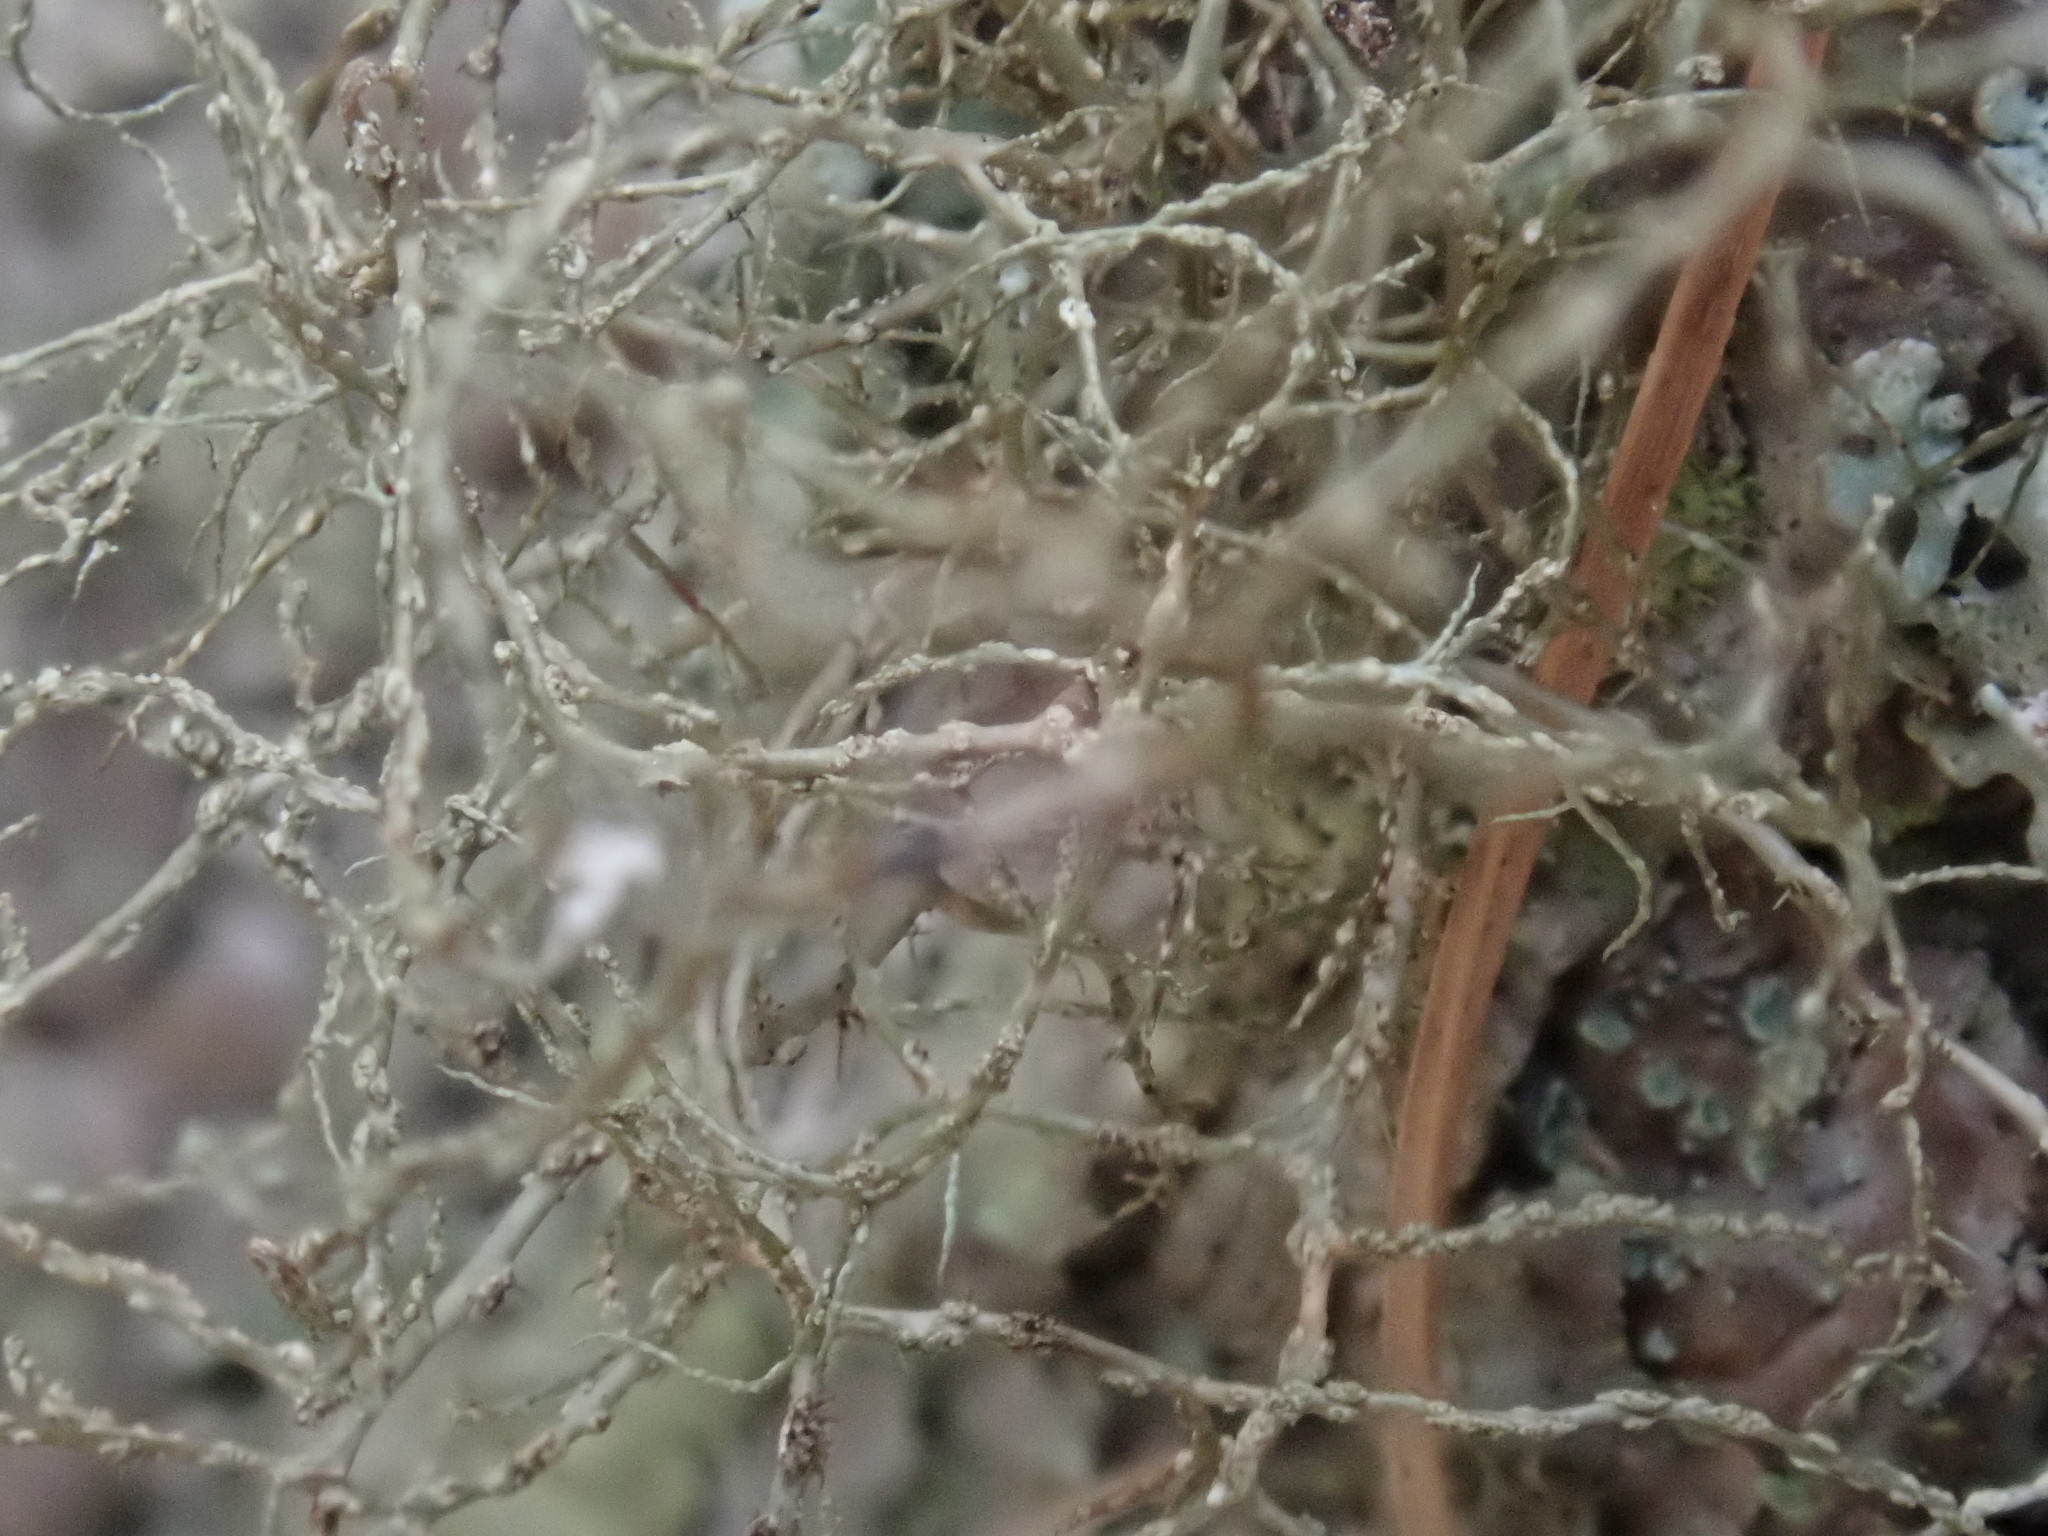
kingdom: Fungi
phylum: Ascomycota
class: Lecanoromycetes
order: Lecanorales
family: Parmeliaceae
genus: Bryoria
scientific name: Bryoria furcellata
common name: Forked hair-lichen
